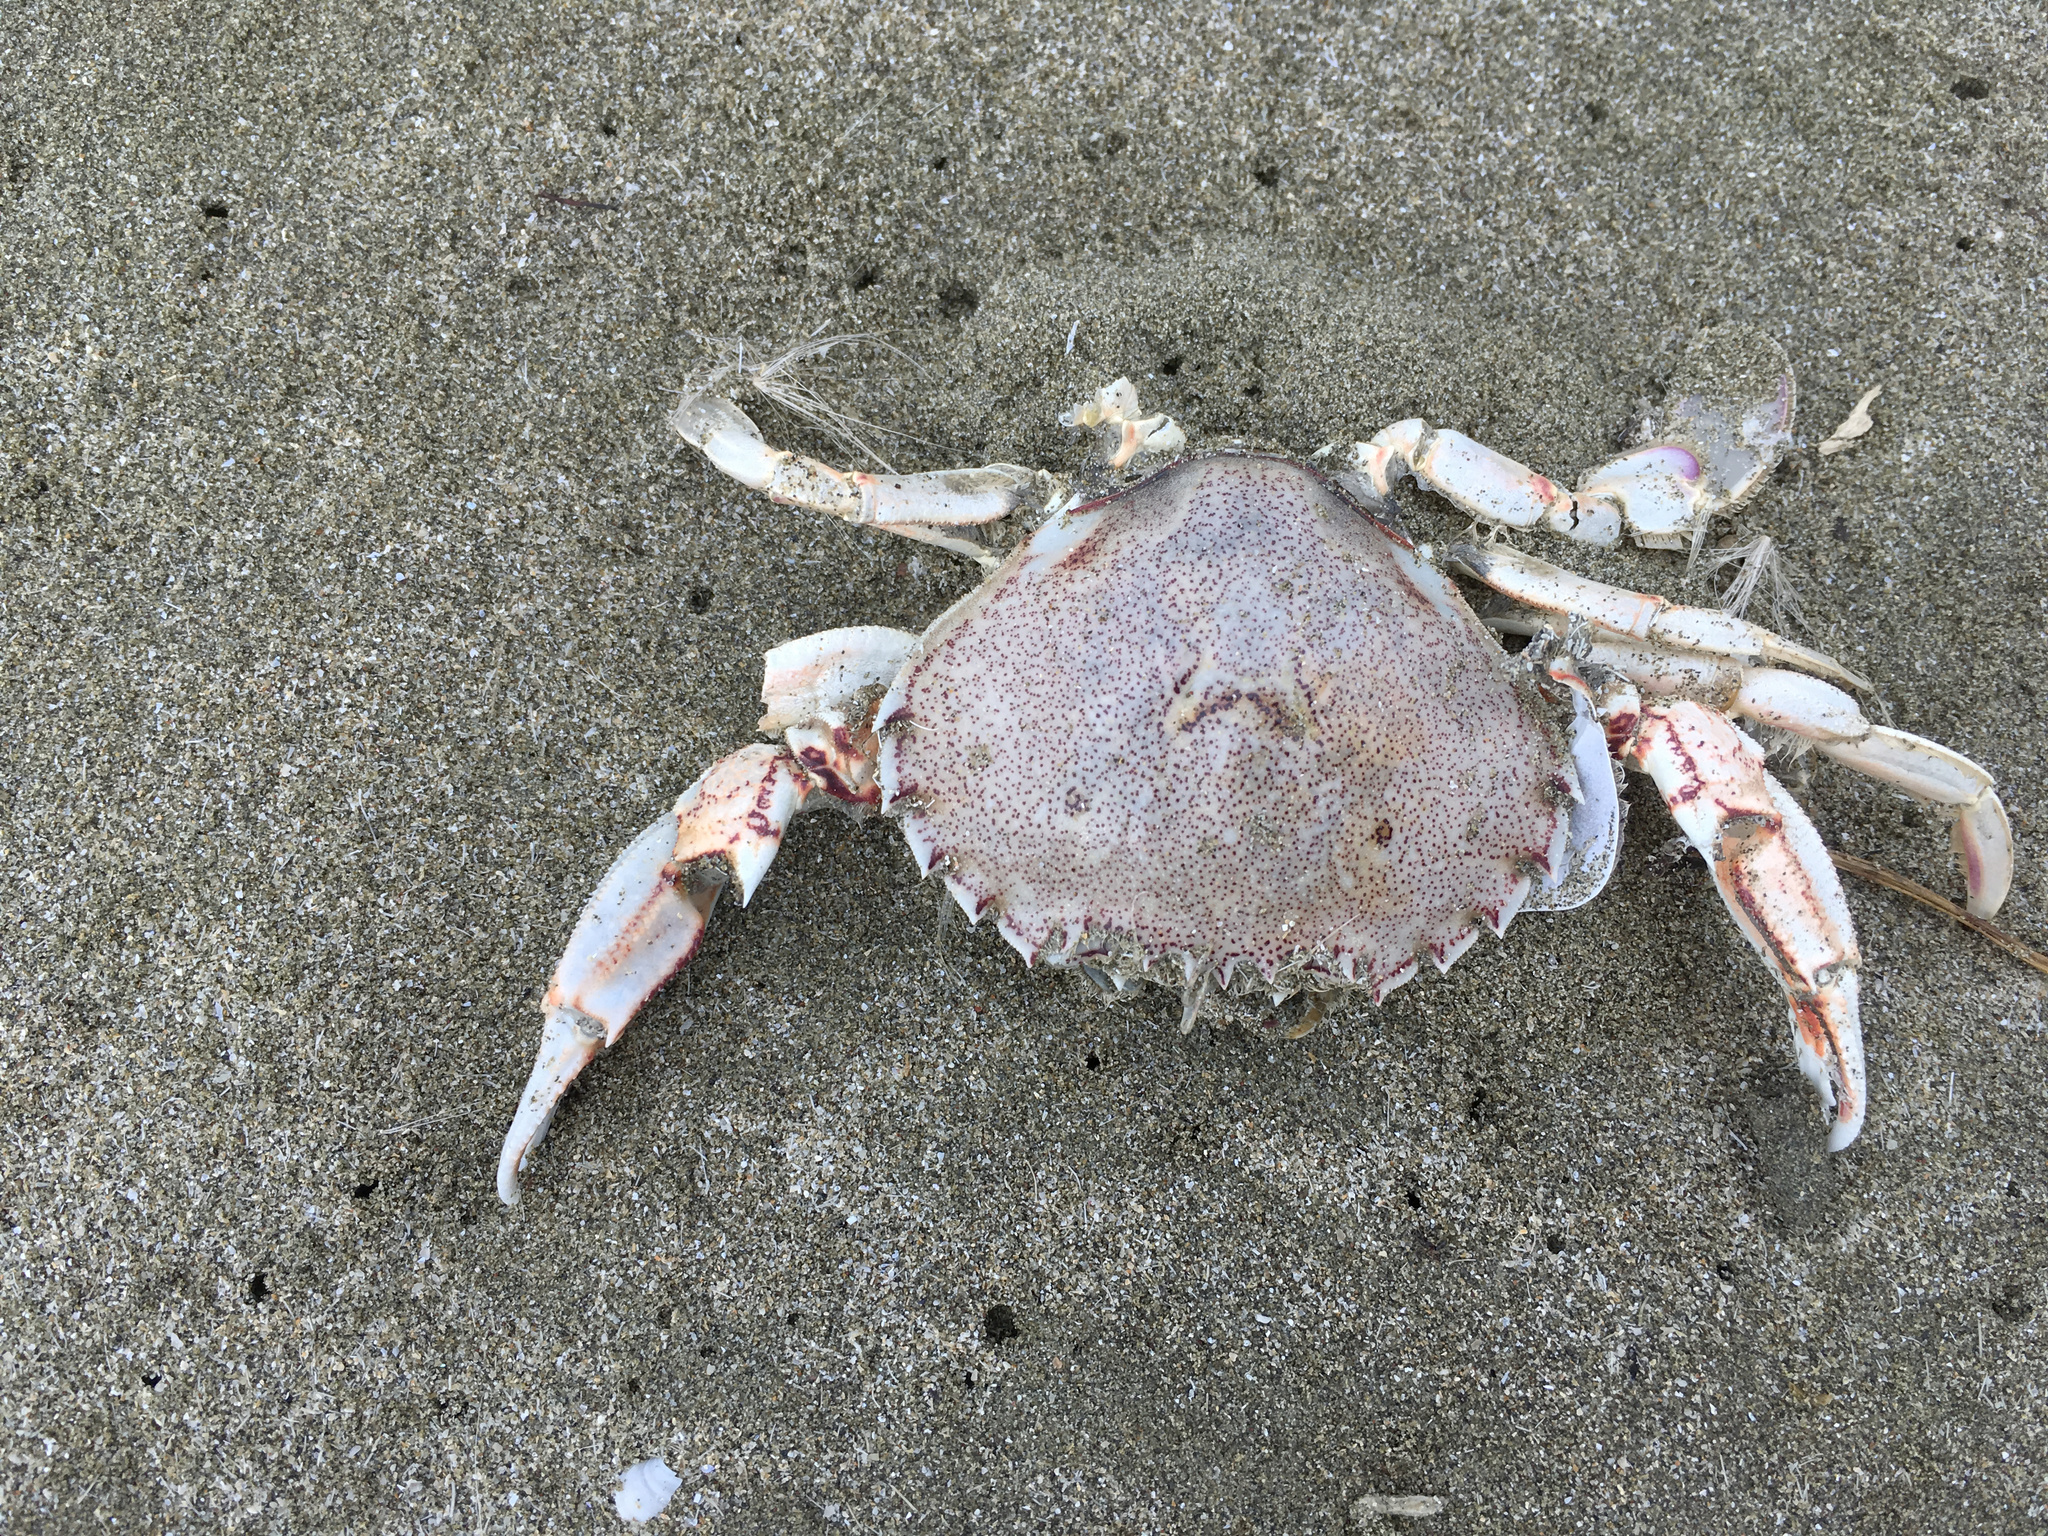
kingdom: Animalia
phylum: Arthropoda
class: Malacostraca
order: Decapoda
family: Ovalipidae
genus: Ovalipes
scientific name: Ovalipes catharus
